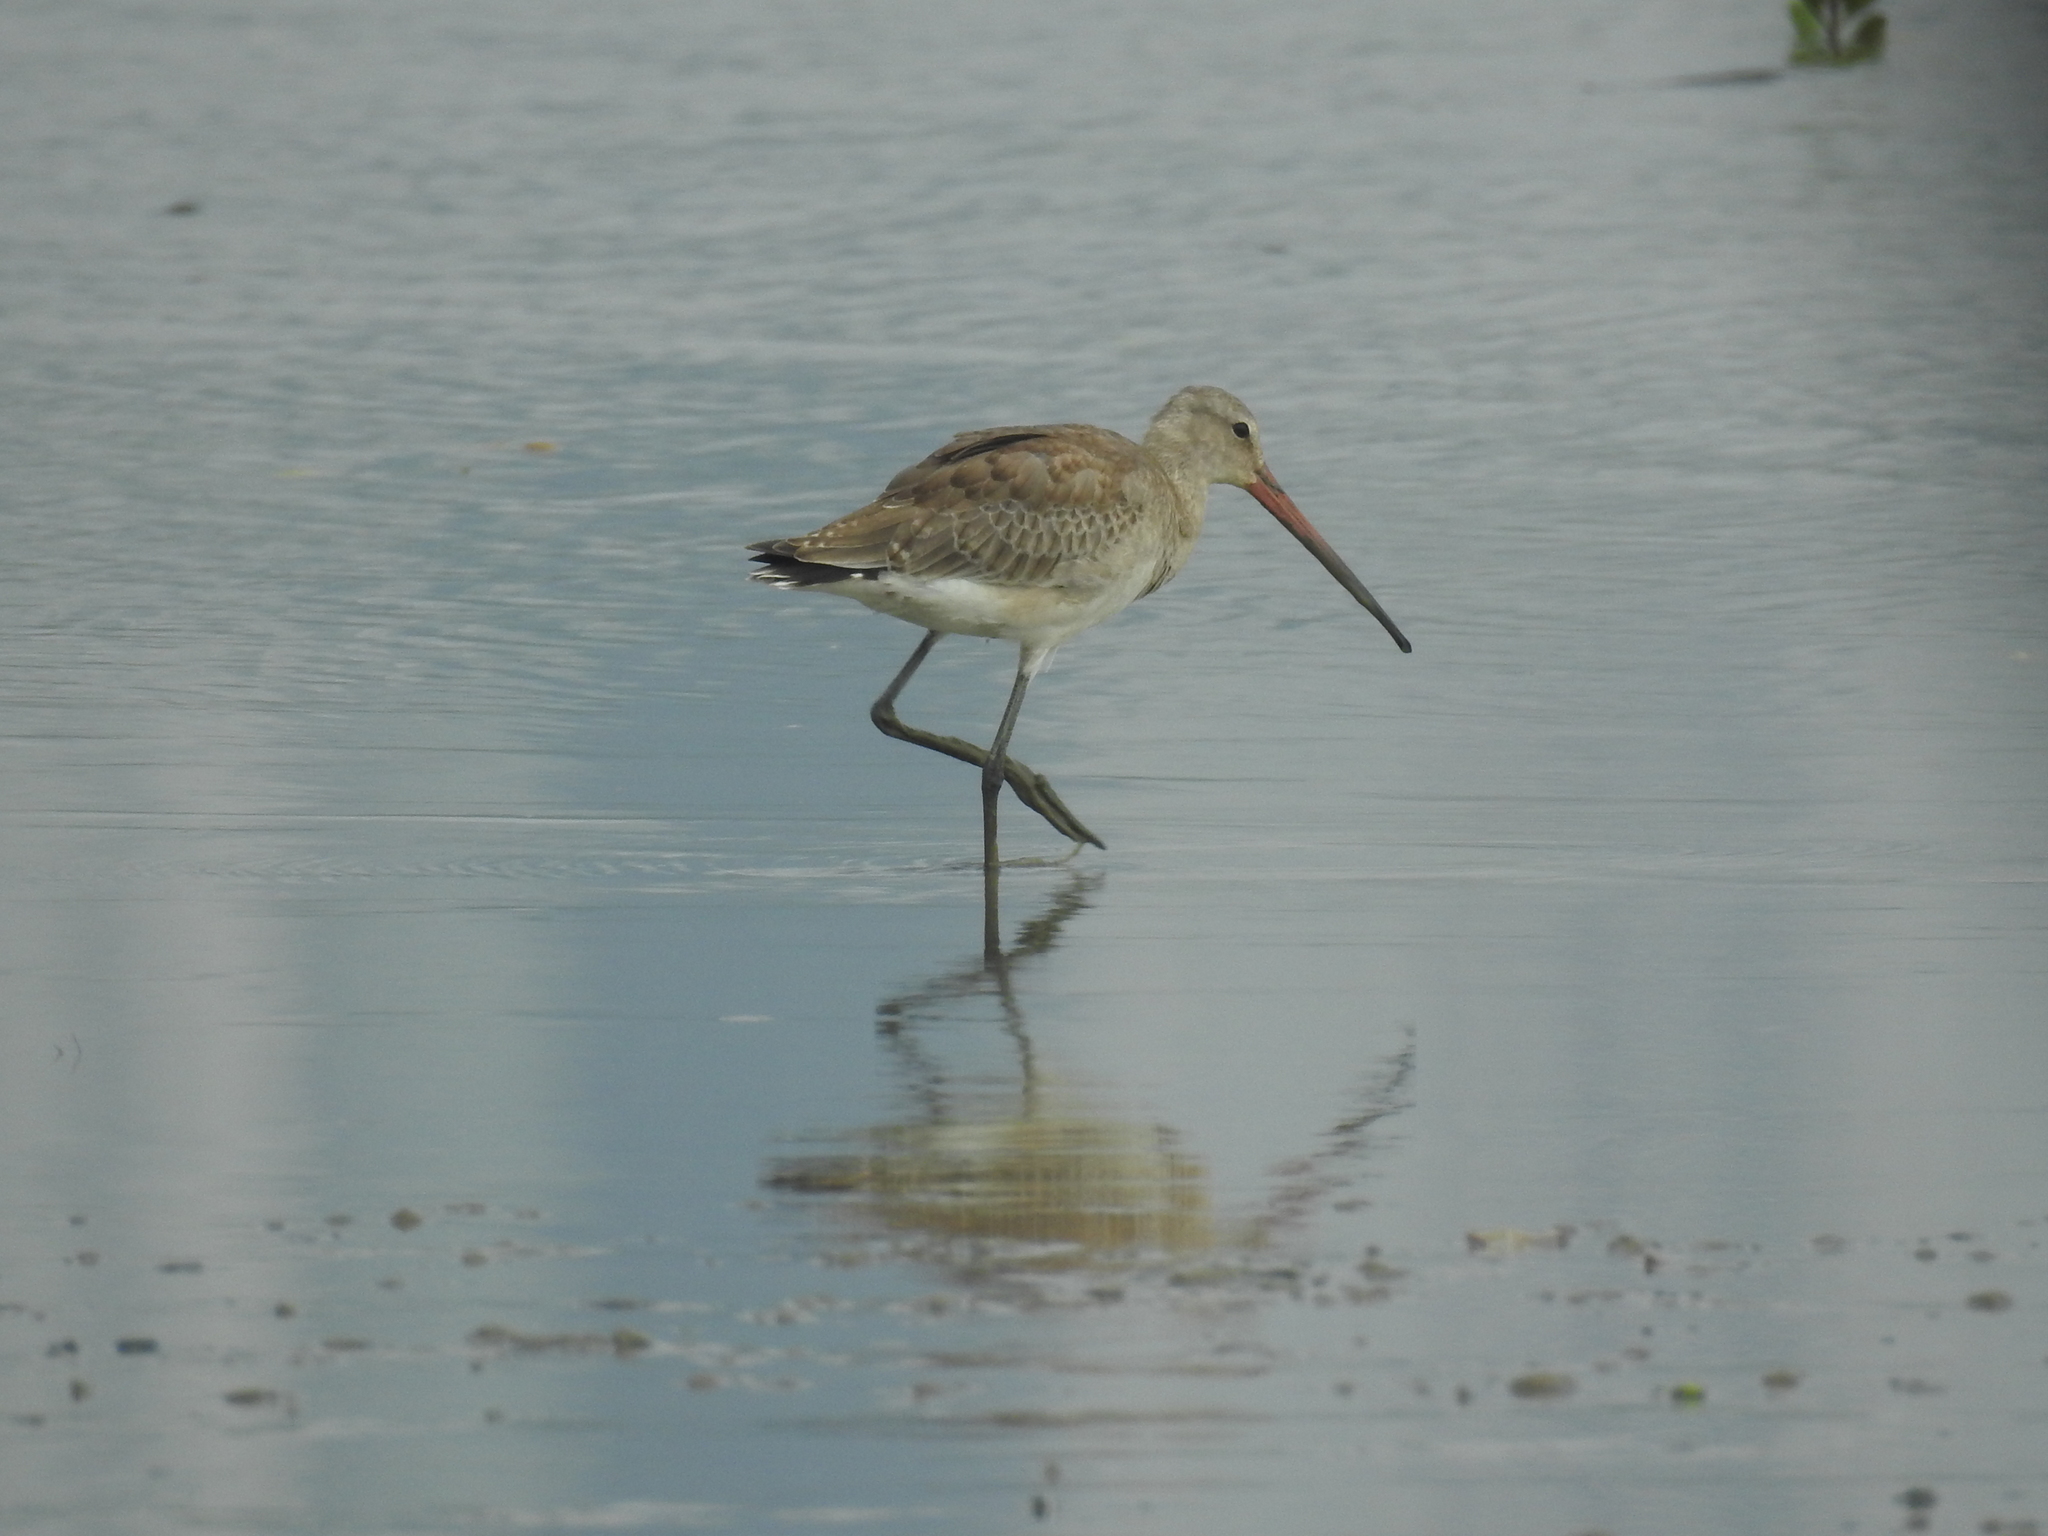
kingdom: Animalia
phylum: Chordata
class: Aves
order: Charadriiformes
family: Scolopacidae
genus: Limosa
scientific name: Limosa limosa
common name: Black-tailed godwit
